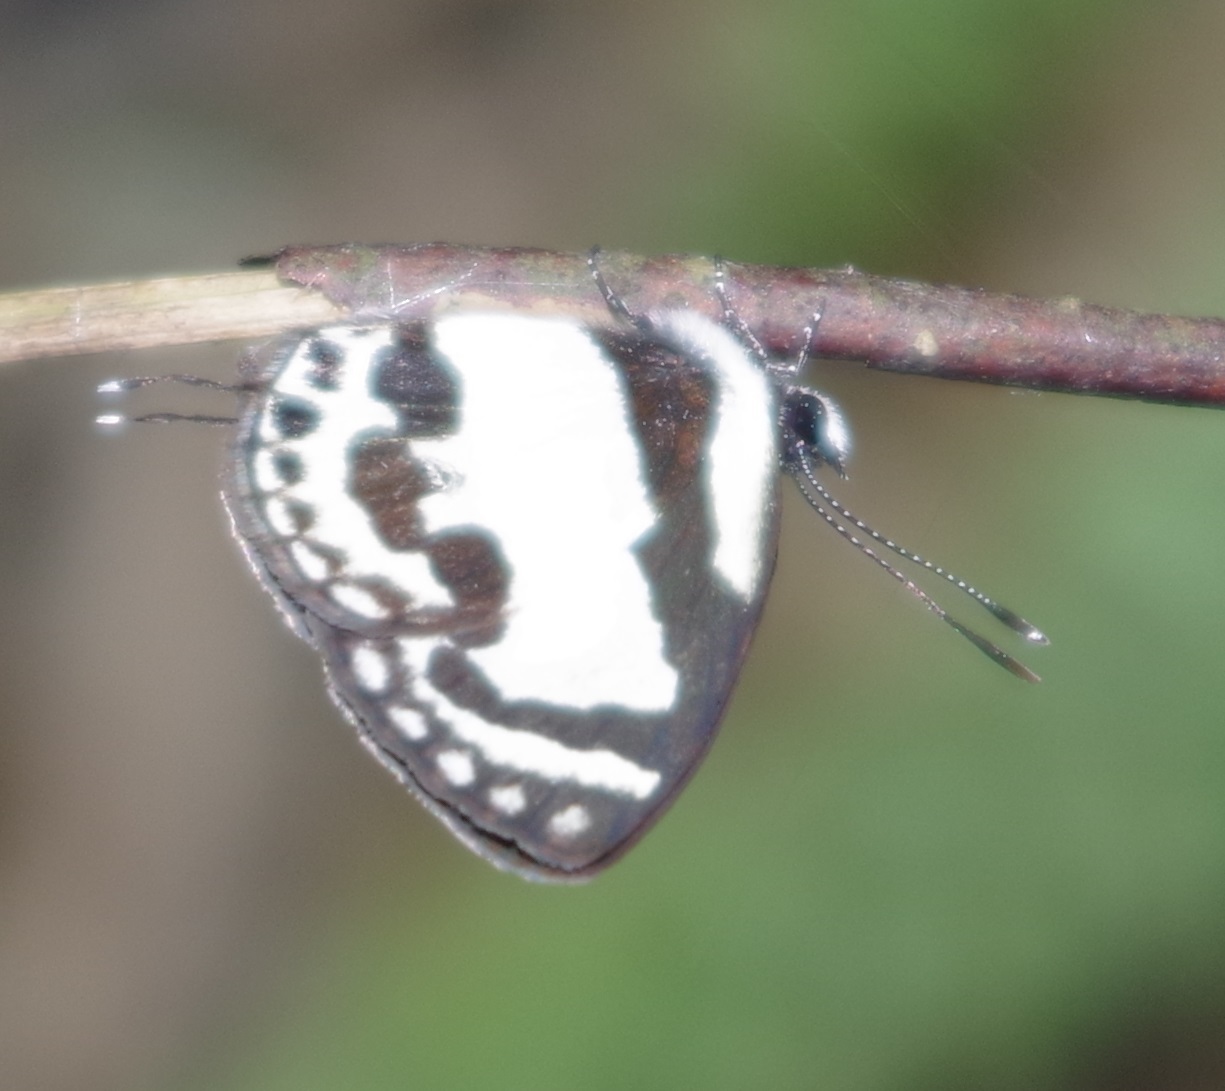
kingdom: Animalia
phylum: Arthropoda
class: Insecta
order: Lepidoptera
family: Lycaenidae
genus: Caleta
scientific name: Caleta roxus
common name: Straight pierrot
